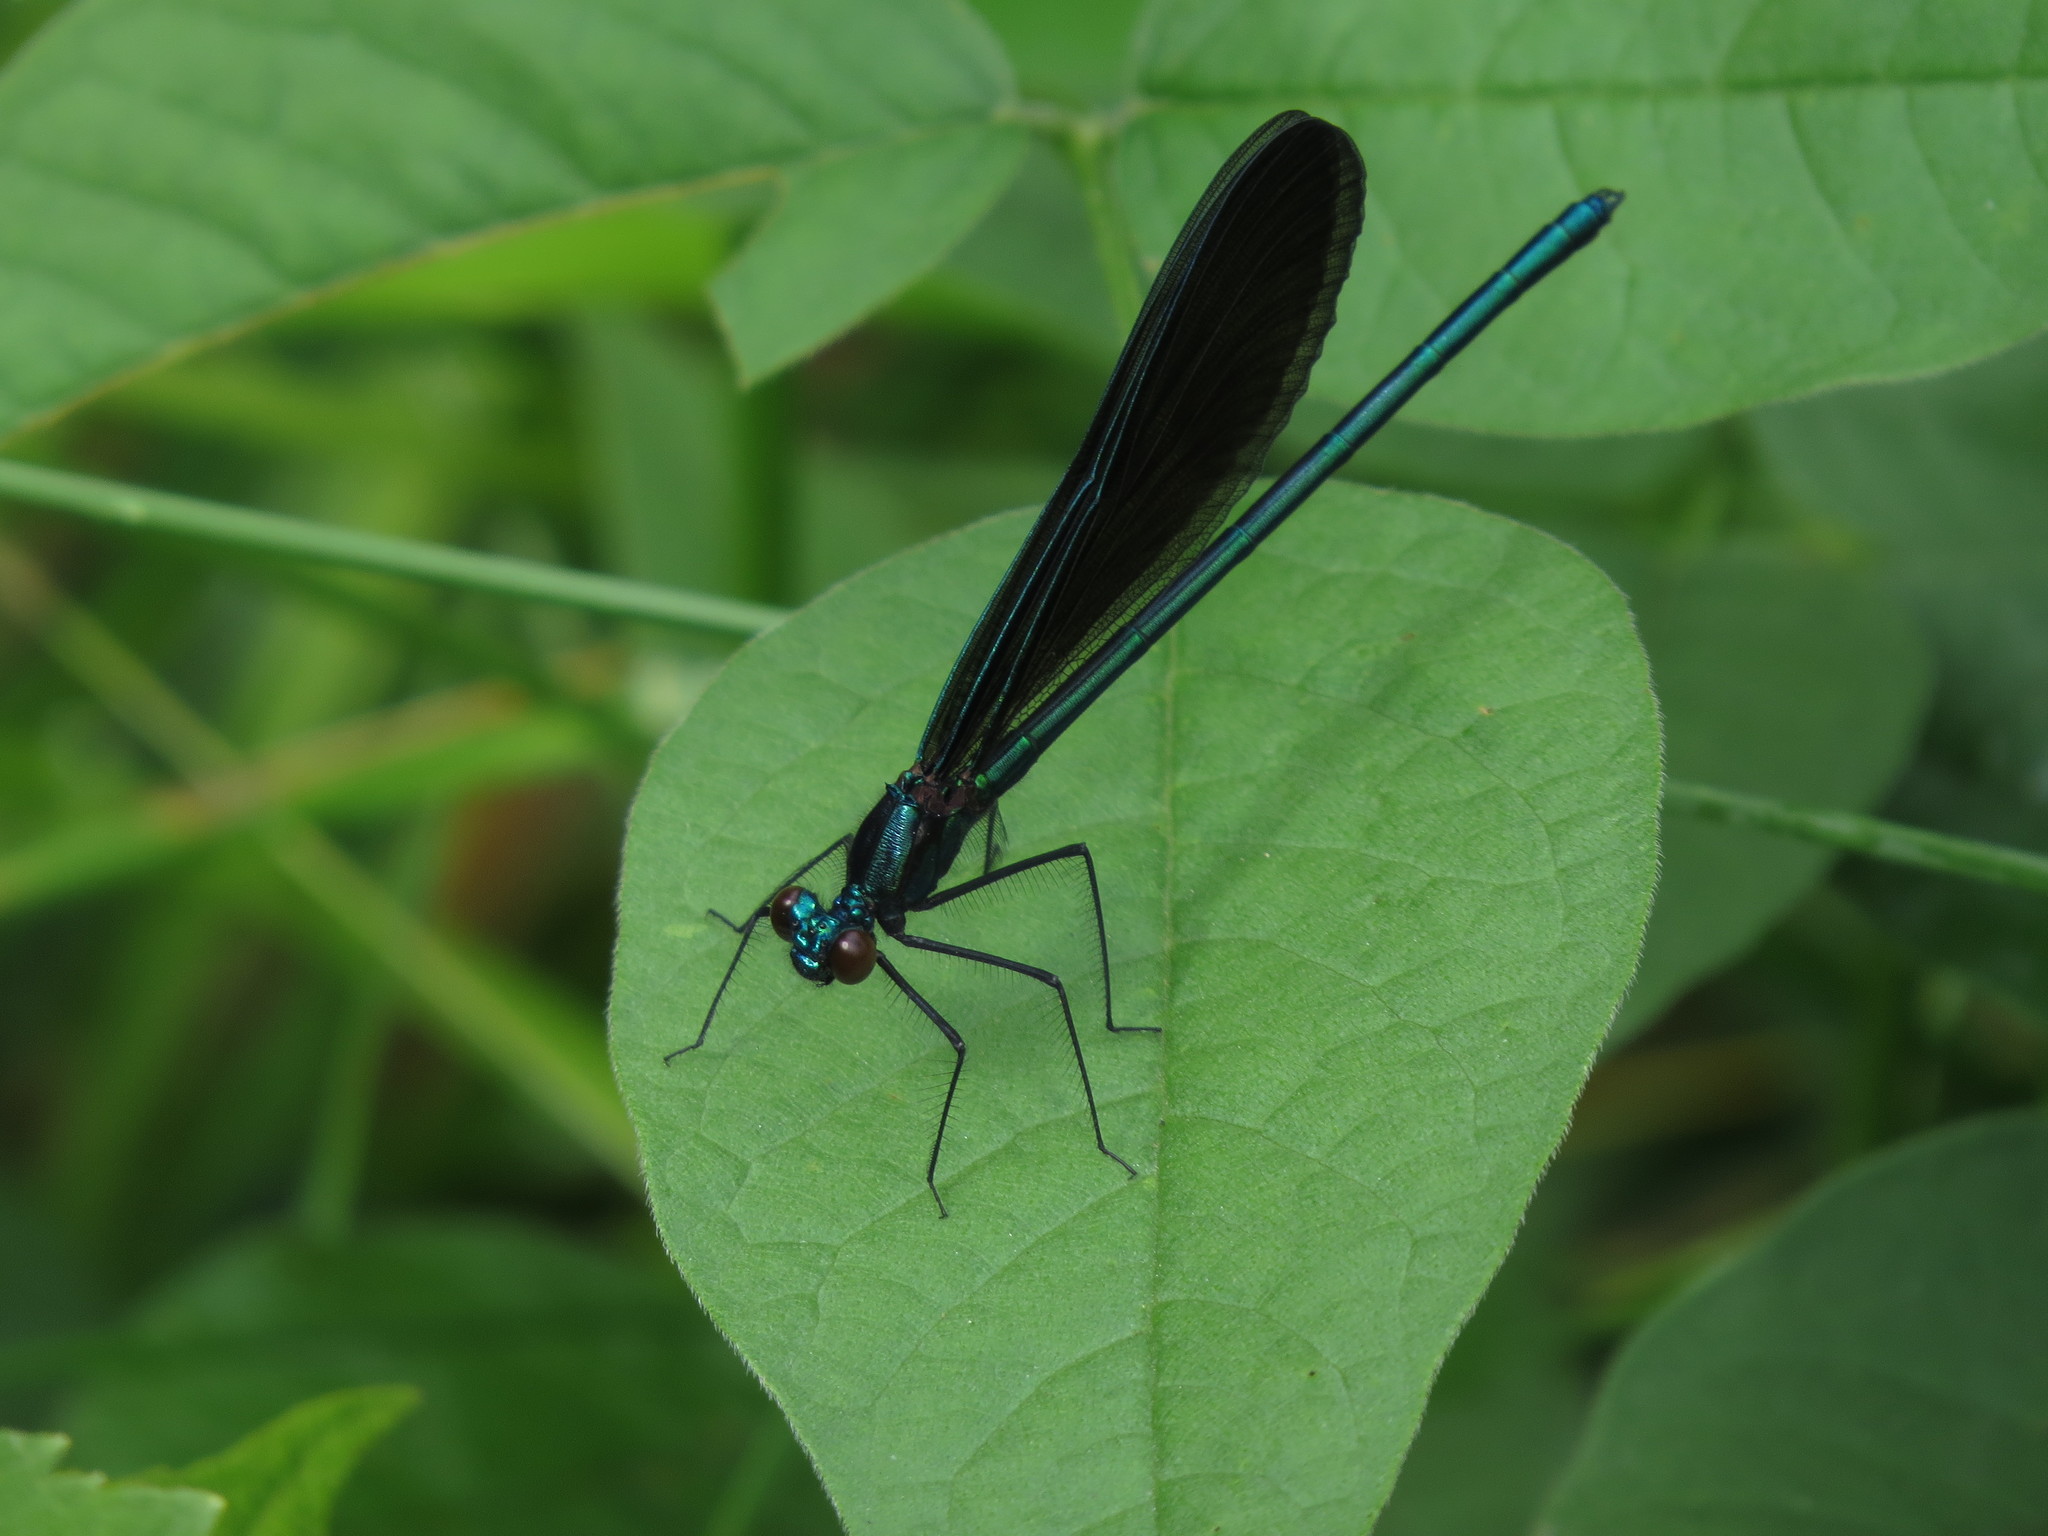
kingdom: Animalia
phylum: Arthropoda
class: Insecta
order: Odonata
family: Calopterygidae
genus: Calopteryx
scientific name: Calopteryx maculata
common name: Ebony jewelwing
